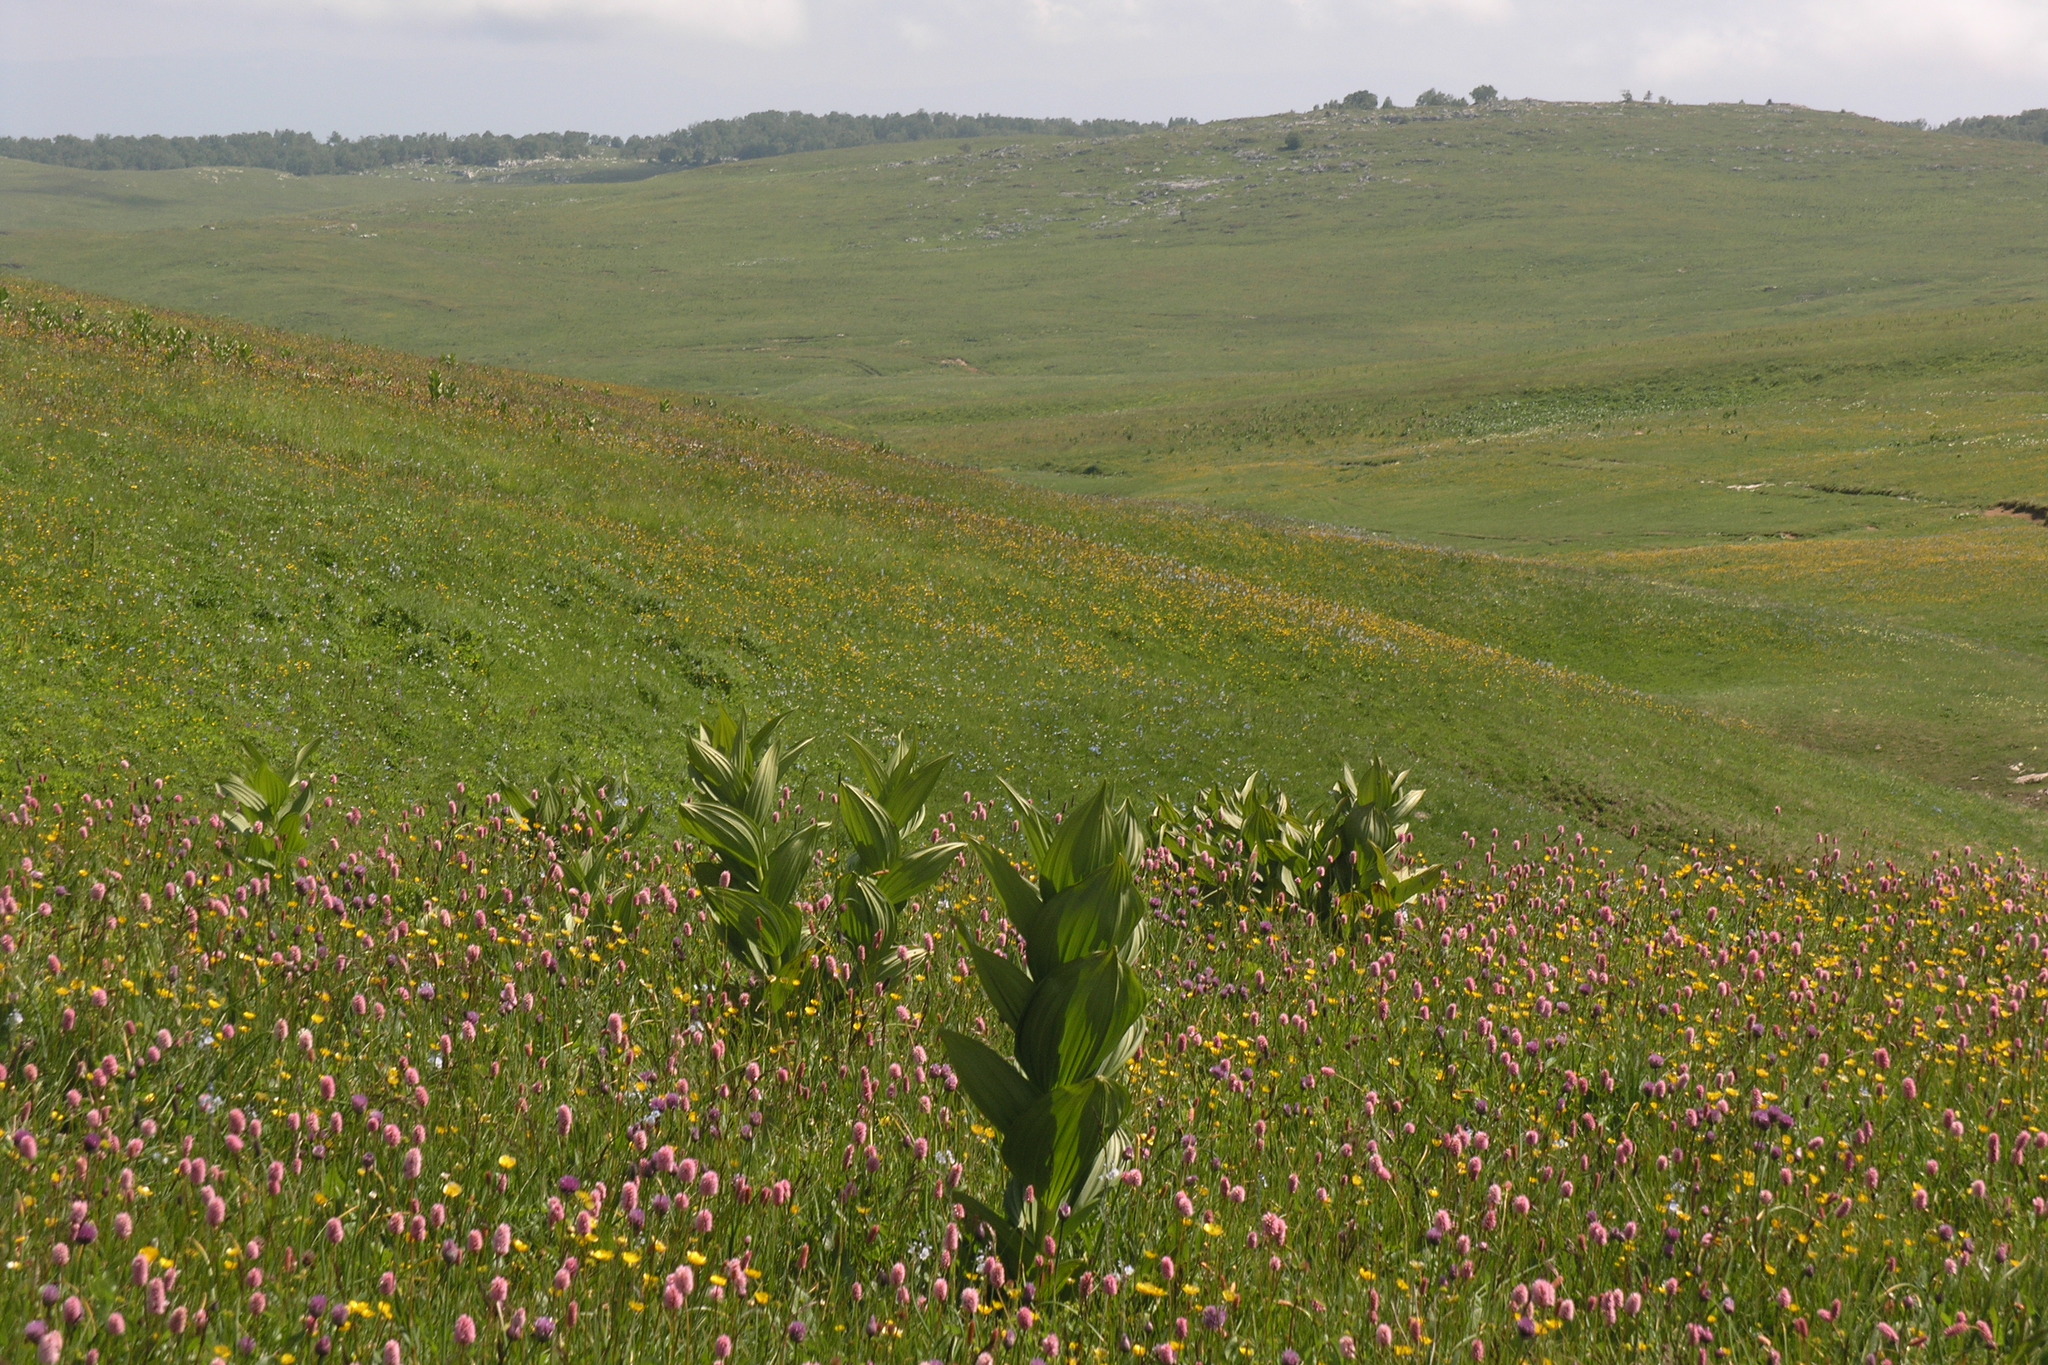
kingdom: Plantae
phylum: Tracheophyta
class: Liliopsida
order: Liliales
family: Melanthiaceae
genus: Veratrum
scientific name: Veratrum lobelianum
